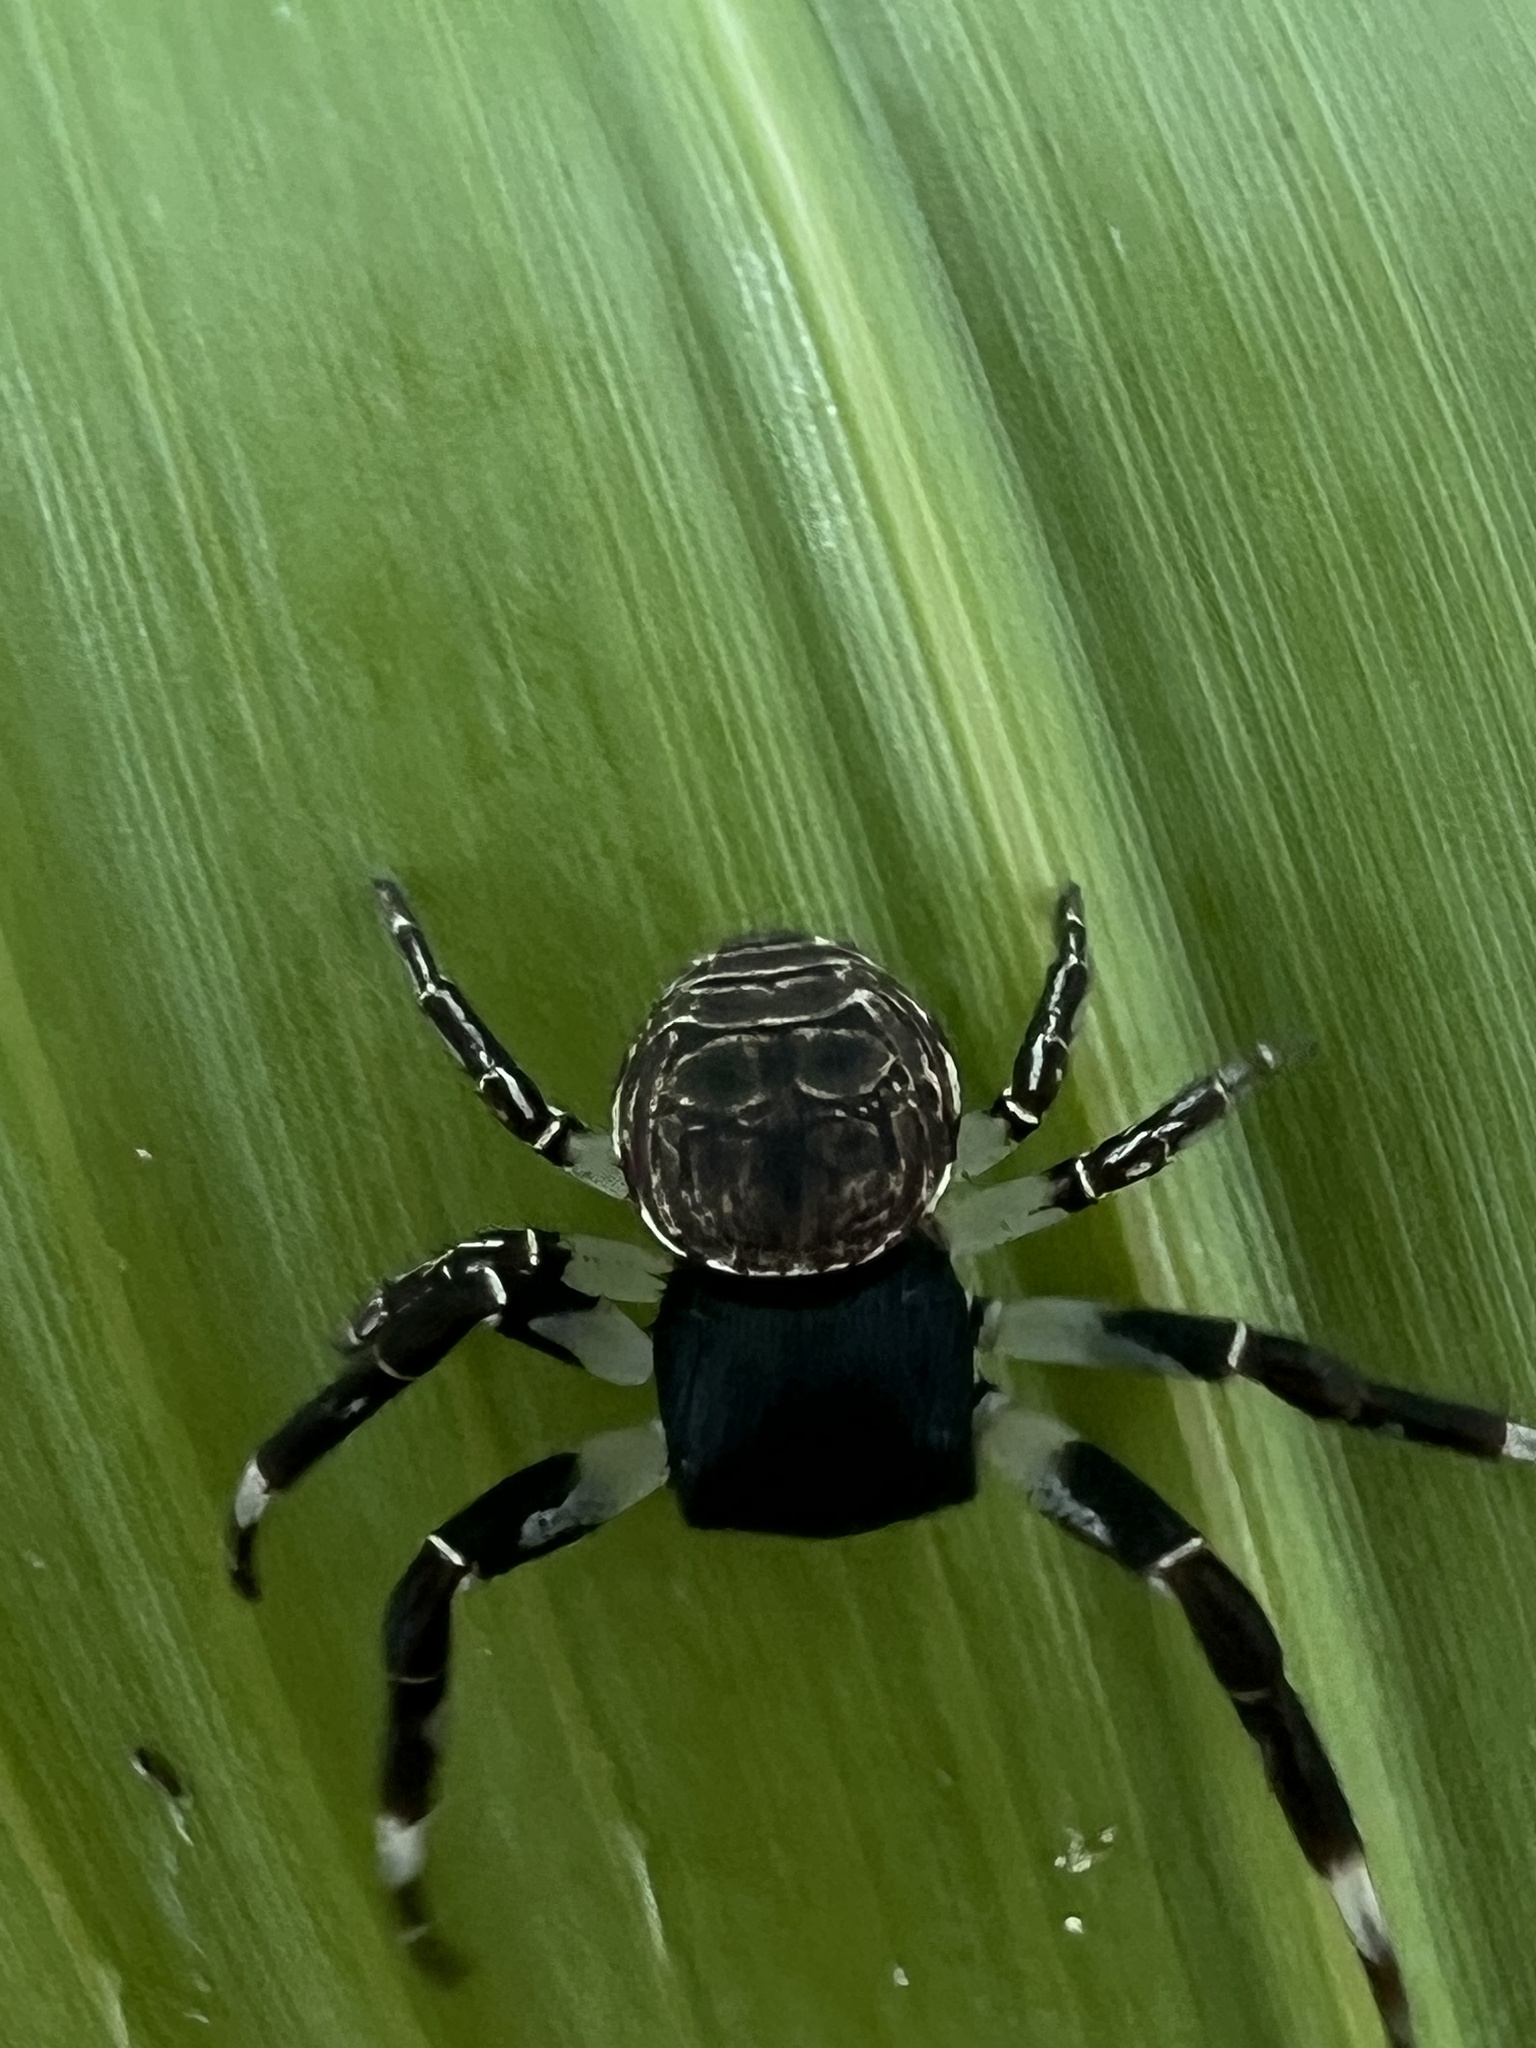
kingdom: Animalia
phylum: Arthropoda
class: Arachnida
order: Araneae
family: Thomisidae
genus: Cymbacha
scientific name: Cymbacha saucia
